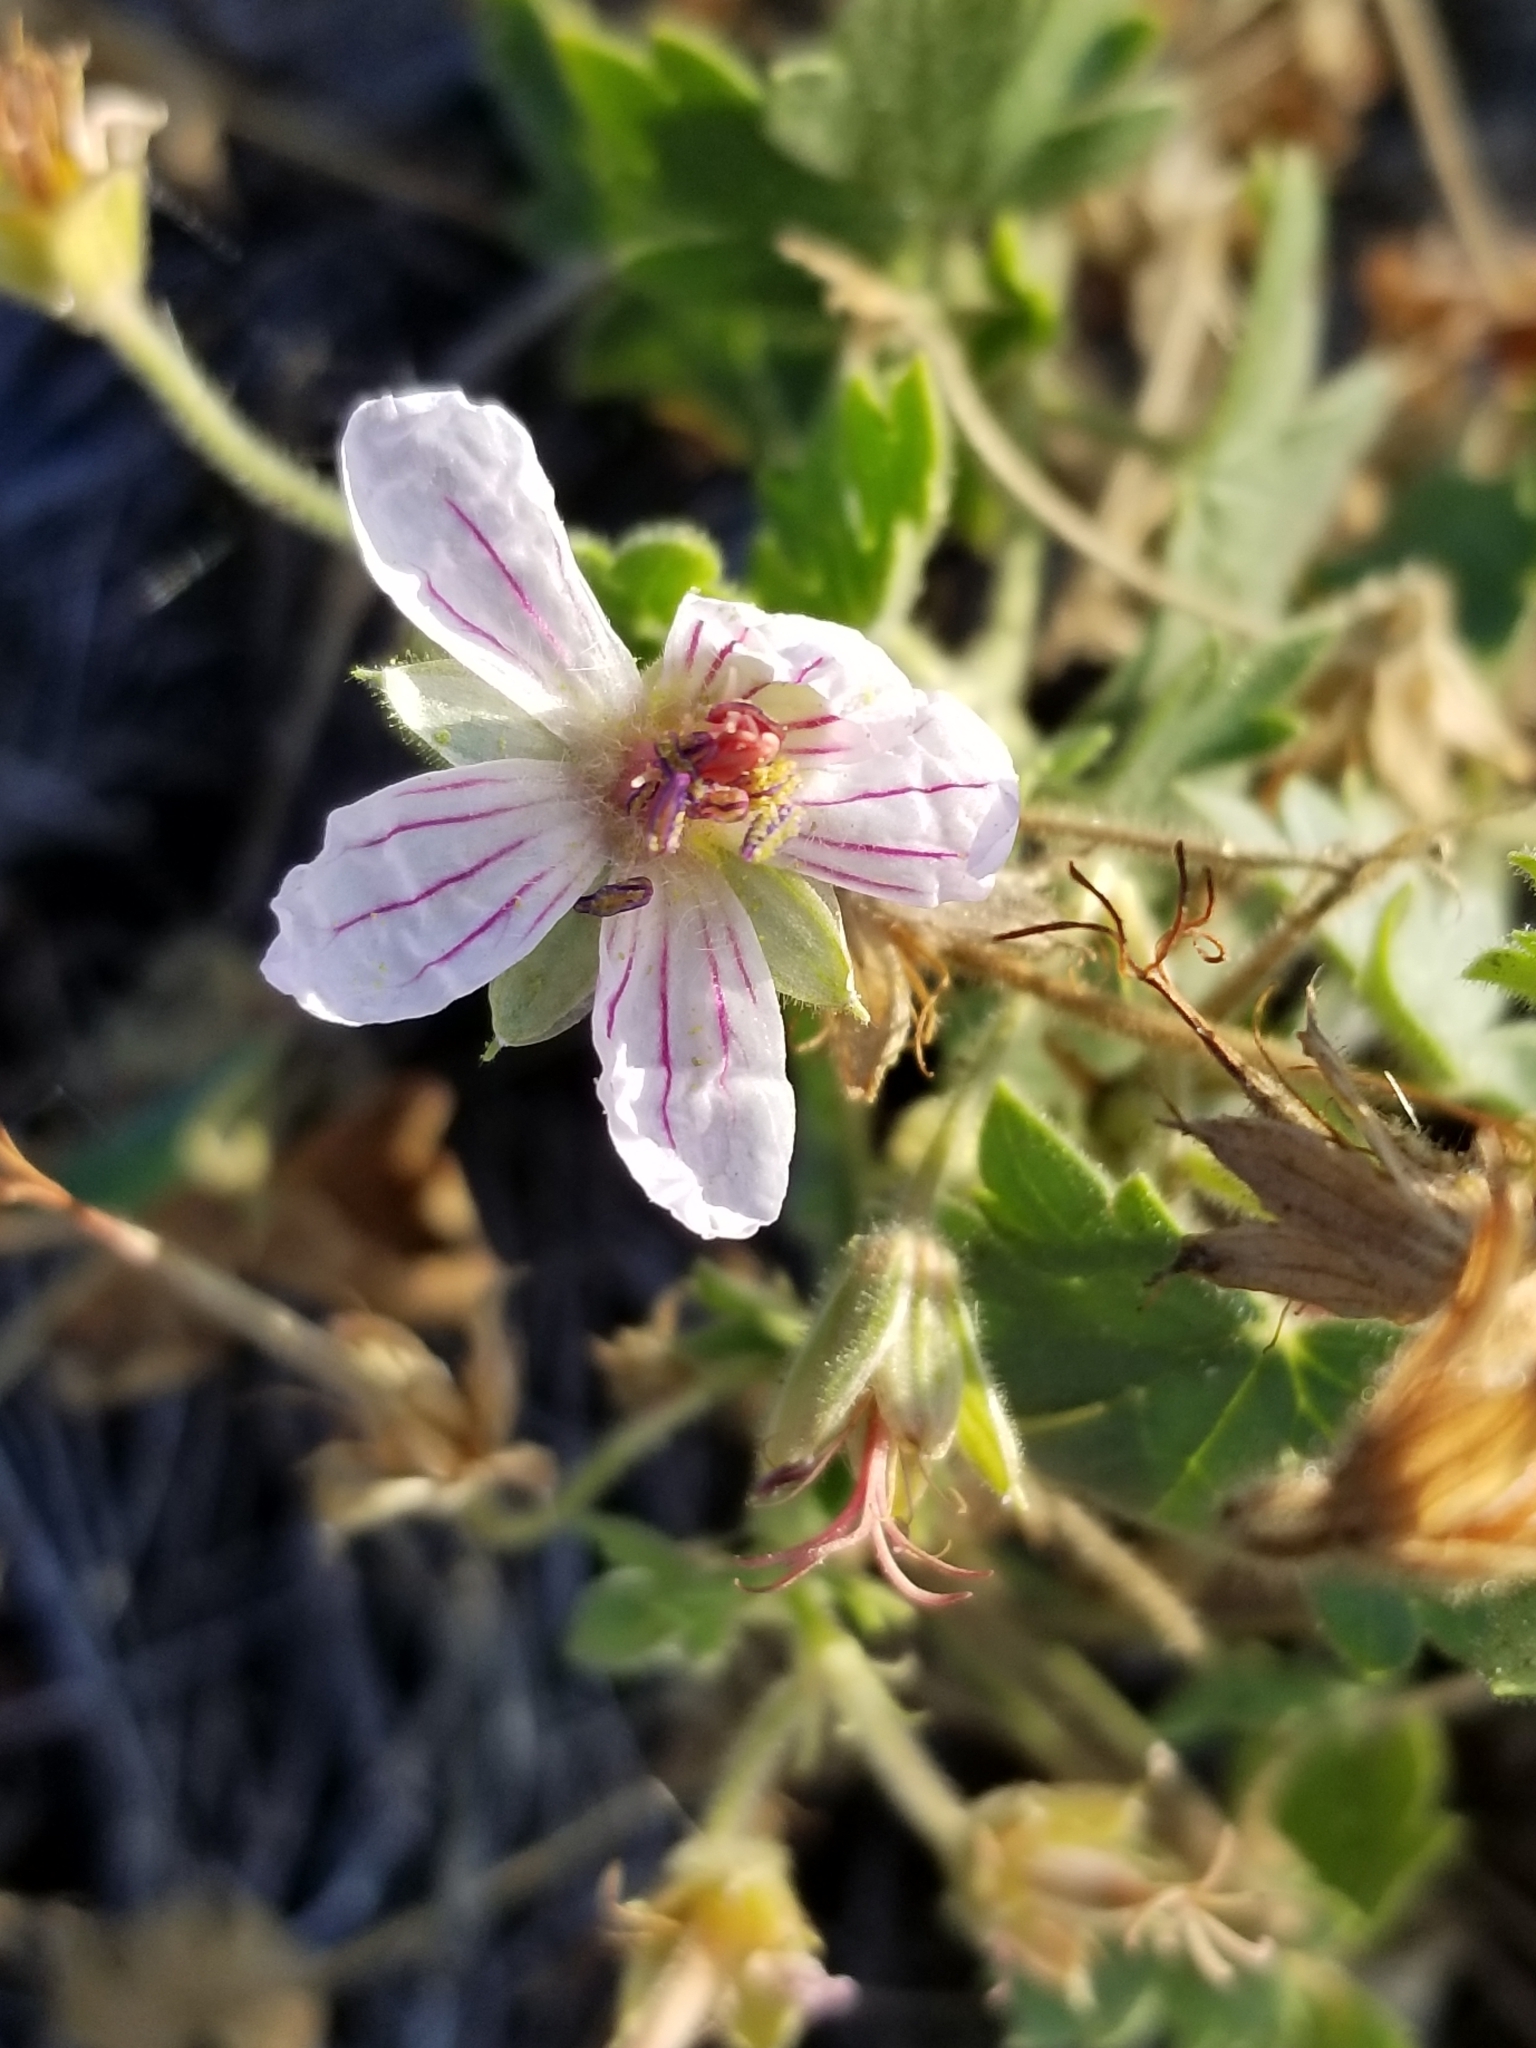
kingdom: Plantae
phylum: Tracheophyta
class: Magnoliopsida
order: Geraniales
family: Geraniaceae
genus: Geranium
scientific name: Geranium caespitosum
